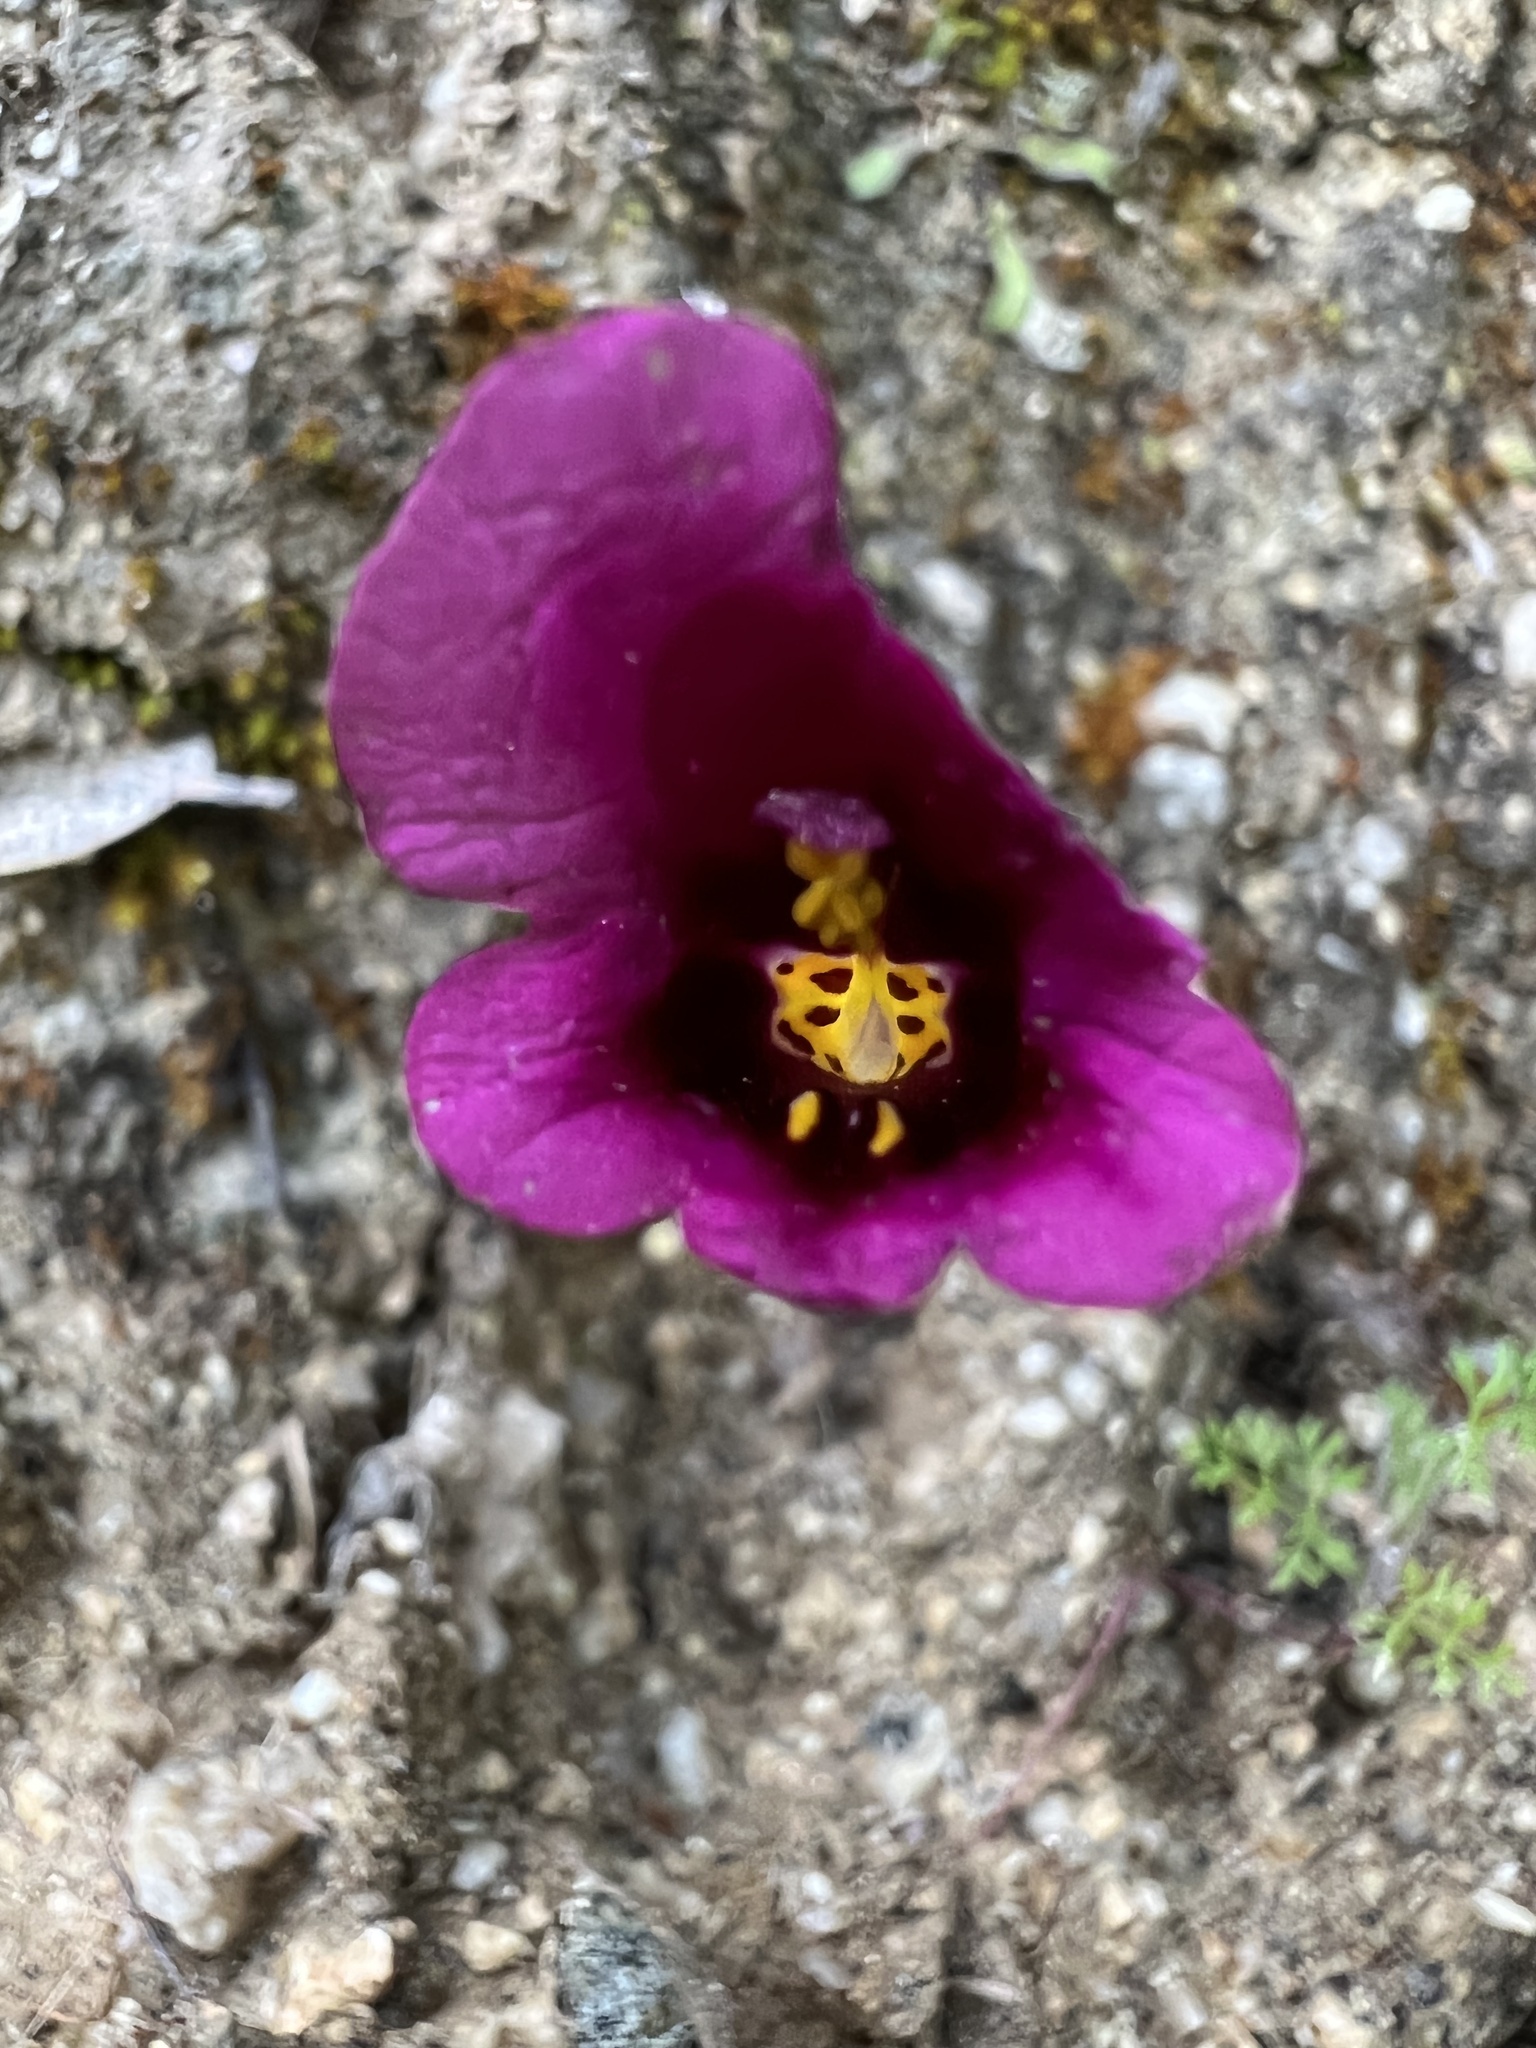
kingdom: Plantae
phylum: Tracheophyta
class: Magnoliopsida
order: Lamiales
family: Phrymaceae
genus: Diplacus
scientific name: Diplacus kelloggii
